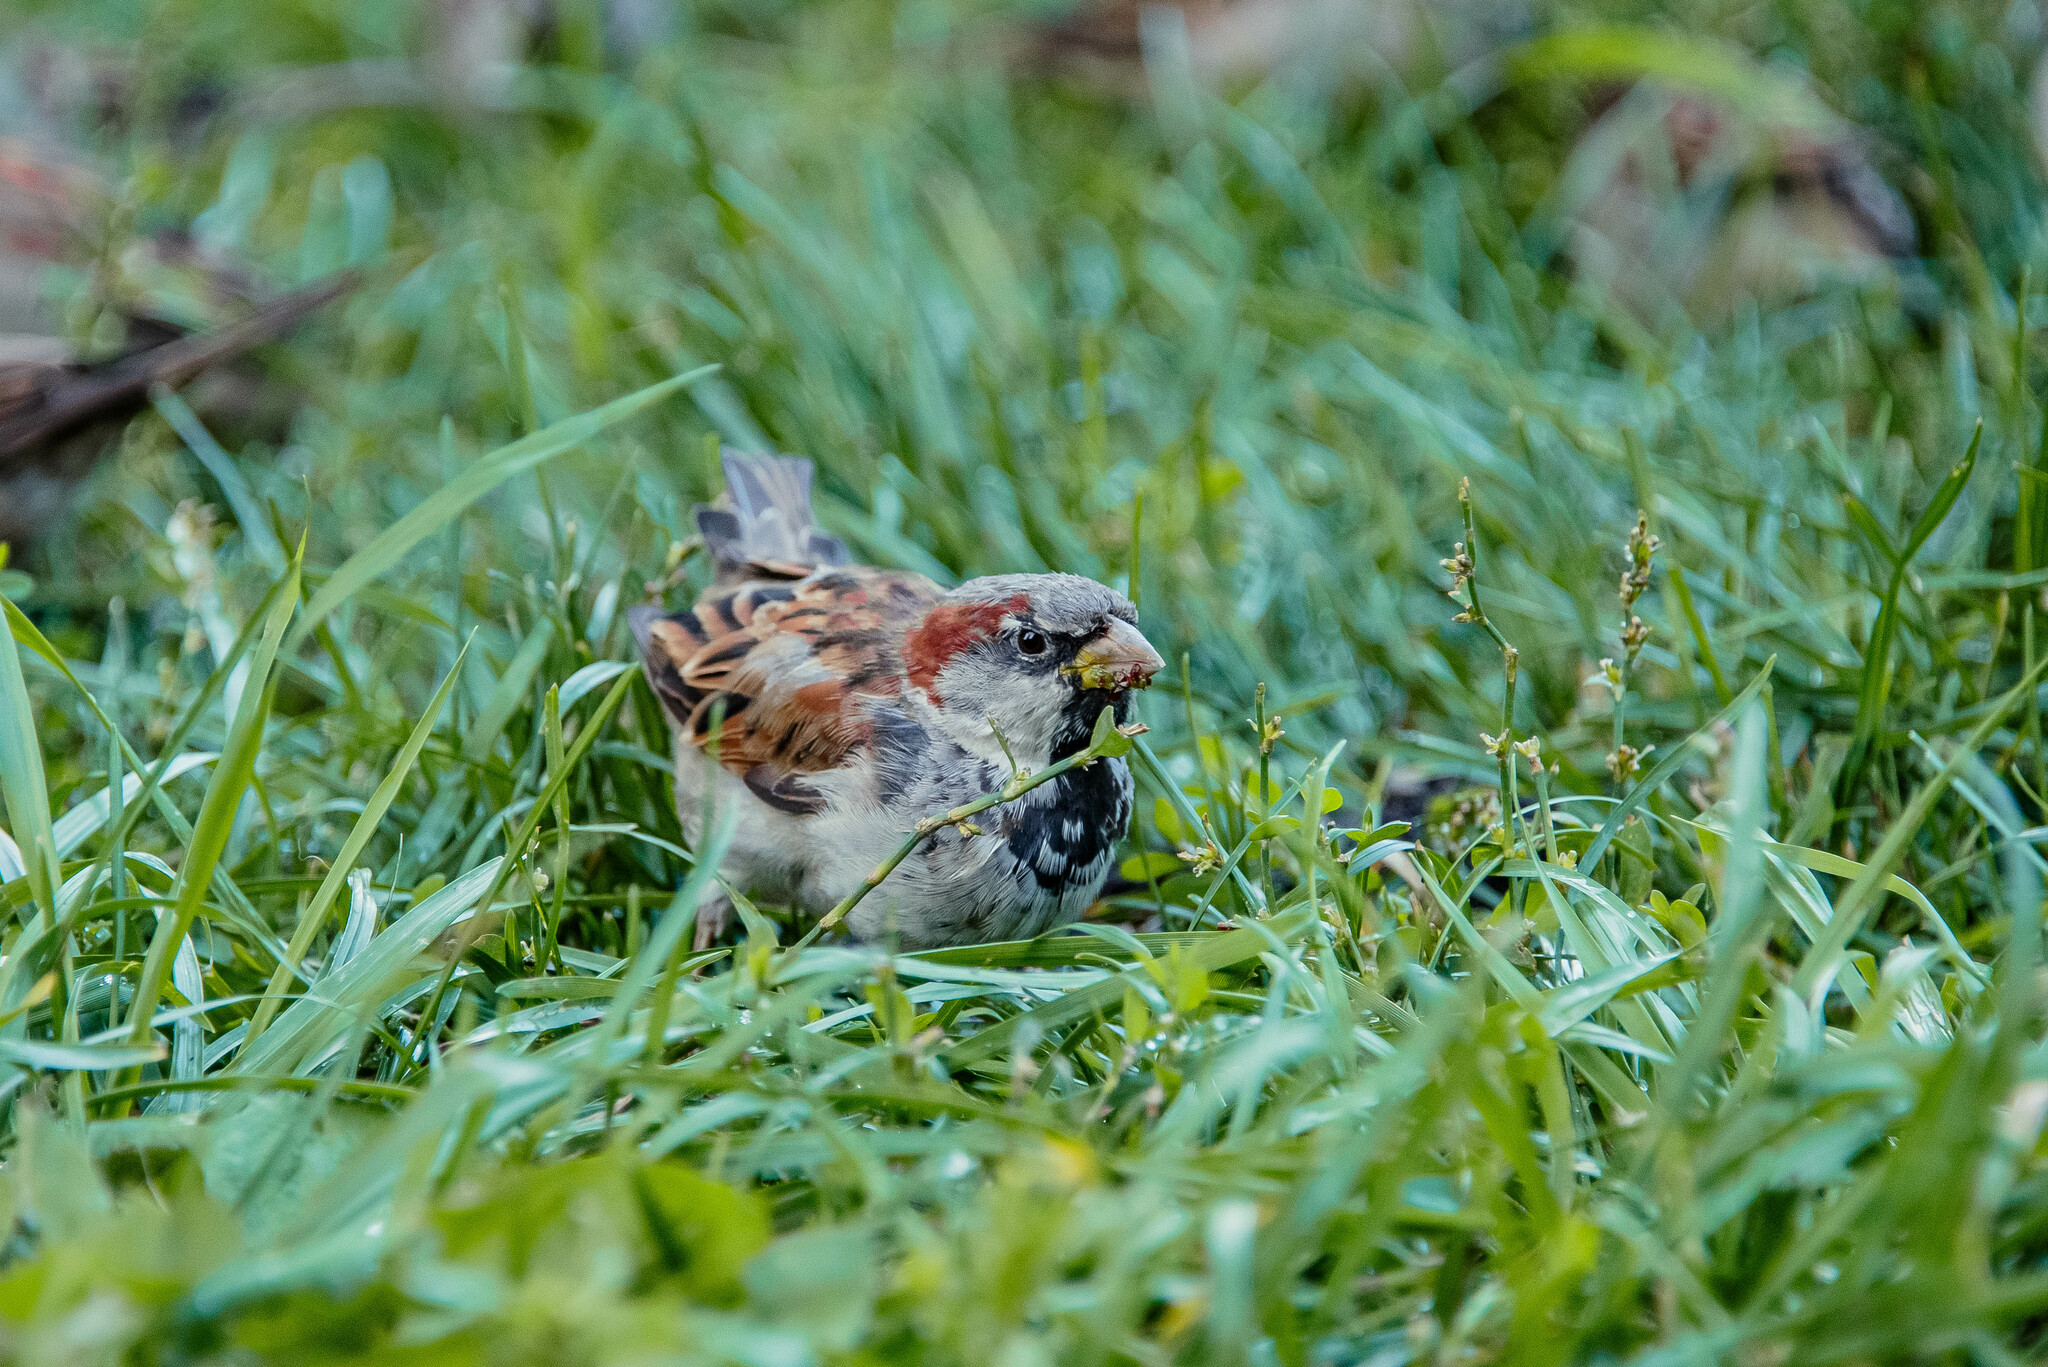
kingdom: Animalia
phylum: Chordata
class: Aves
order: Passeriformes
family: Passeridae
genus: Passer
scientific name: Passer domesticus
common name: House sparrow
